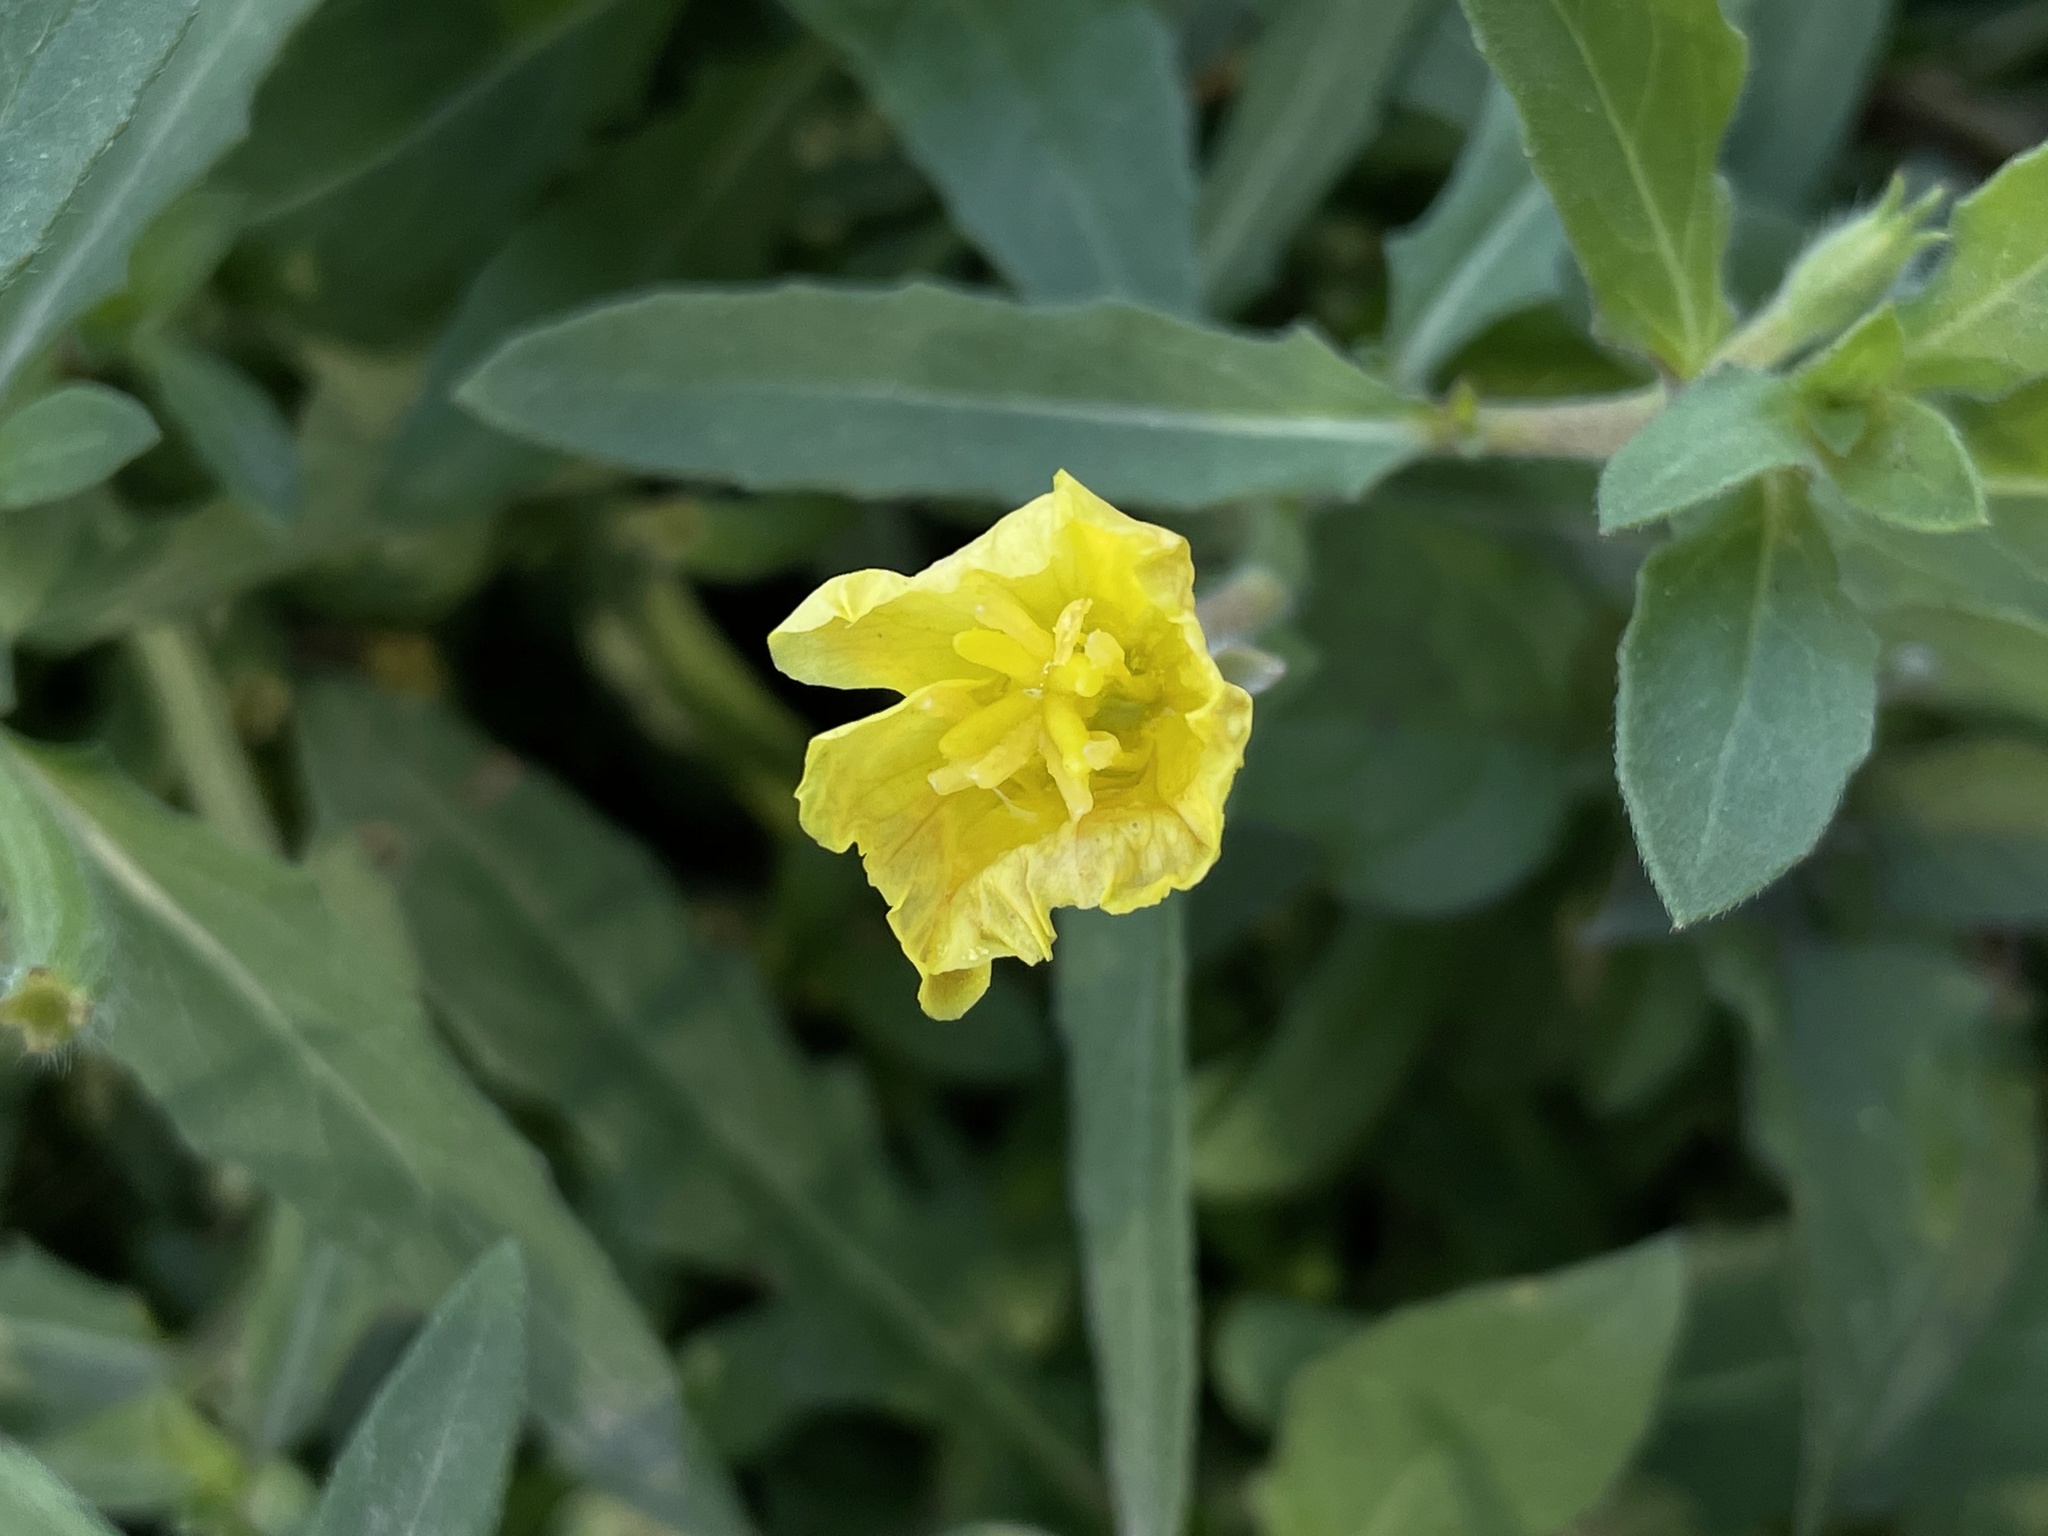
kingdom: Plantae
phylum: Tracheophyta
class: Magnoliopsida
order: Myrtales
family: Onagraceae
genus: Oenothera
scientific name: Oenothera laciniata
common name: Cut-leaved evening-primrose
